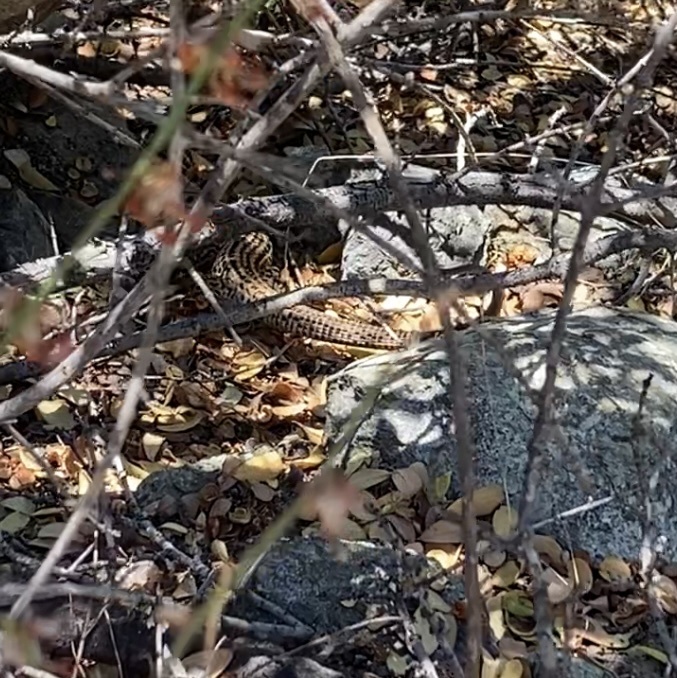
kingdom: Animalia
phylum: Chordata
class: Squamata
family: Teiidae
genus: Aspidoscelis
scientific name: Aspidoscelis tigris
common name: Tiger whiptail
